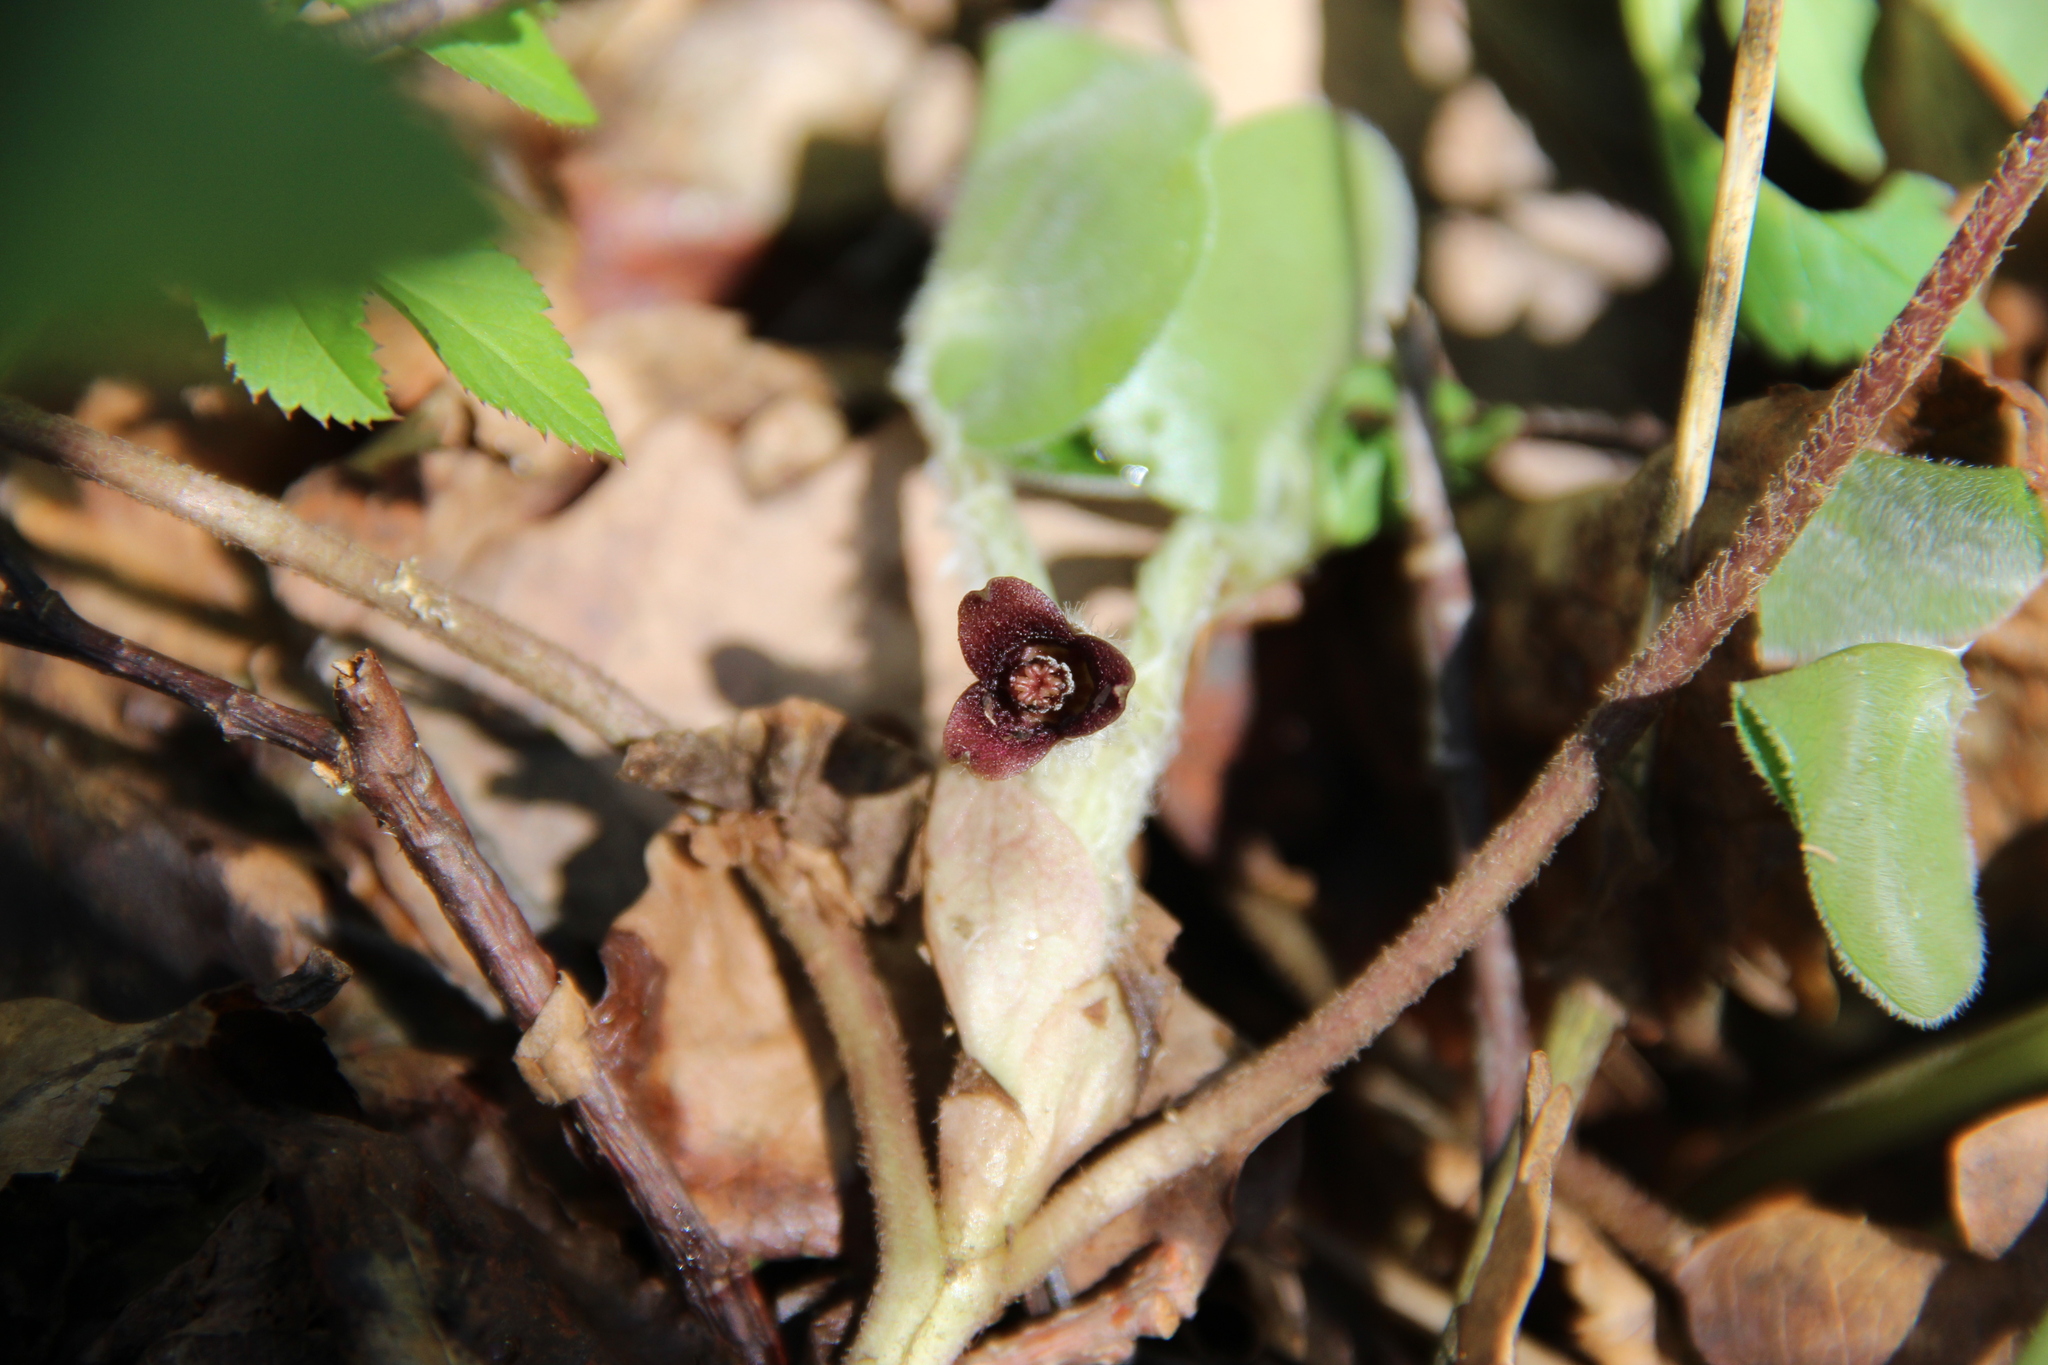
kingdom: Plantae
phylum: Tracheophyta
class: Magnoliopsida
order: Piperales
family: Aristolochiaceae
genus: Asarum
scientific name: Asarum europaeum
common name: Asarabacca
